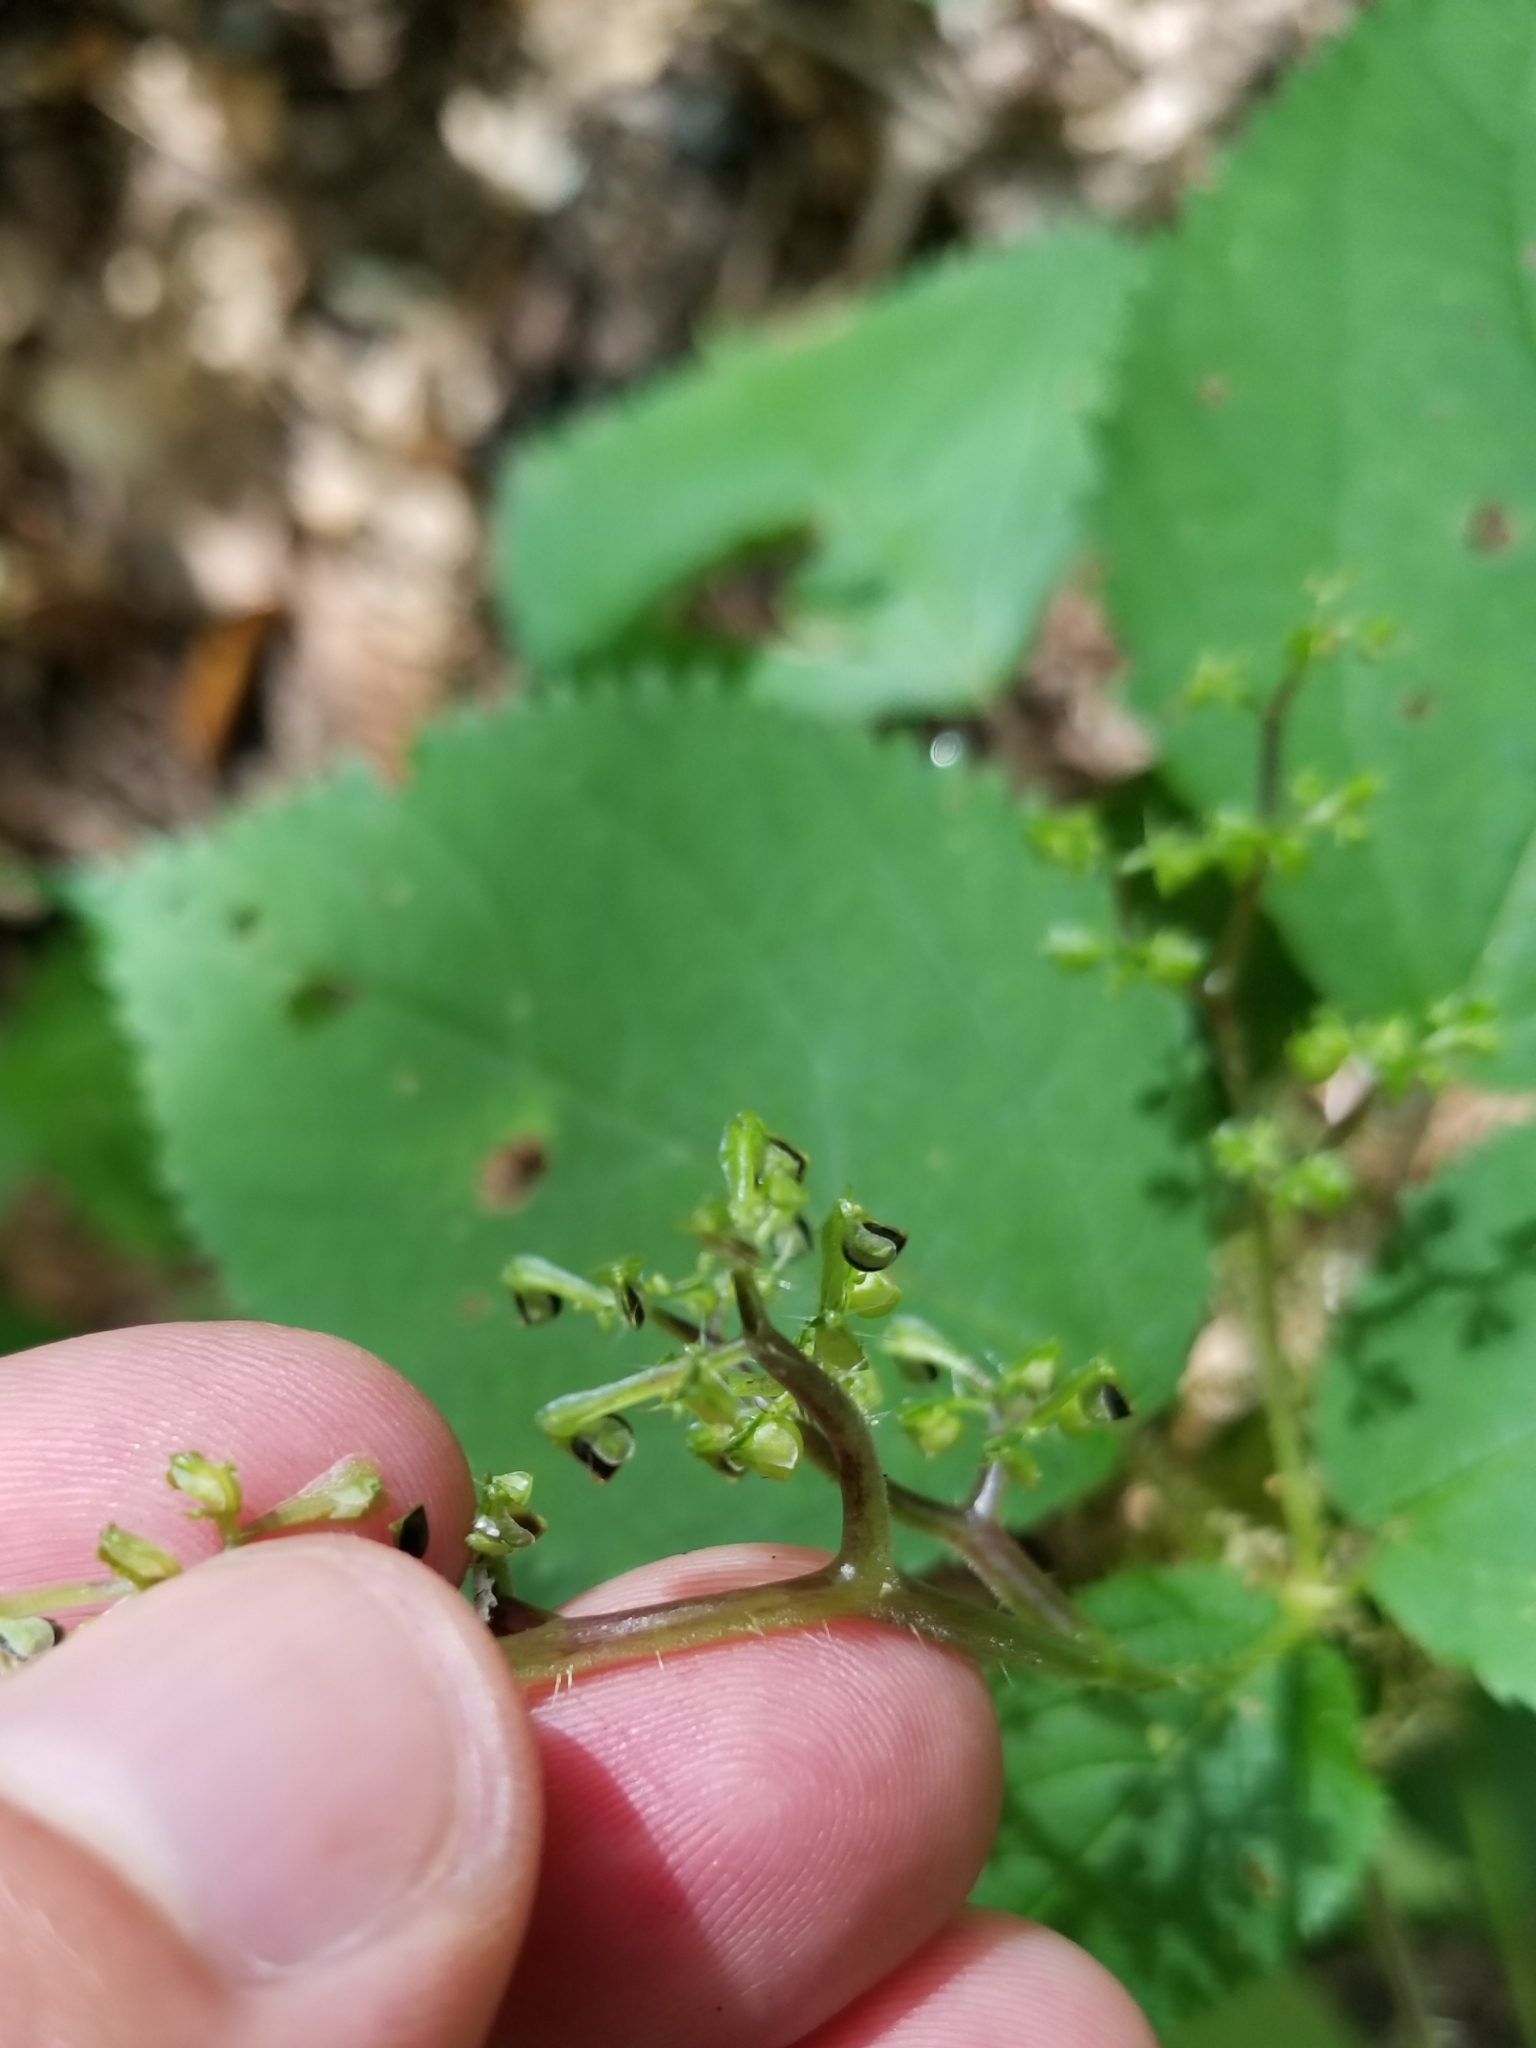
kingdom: Plantae
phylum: Tracheophyta
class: Magnoliopsida
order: Rosales
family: Urticaceae
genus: Laportea
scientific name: Laportea canadensis
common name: Canada nettle
